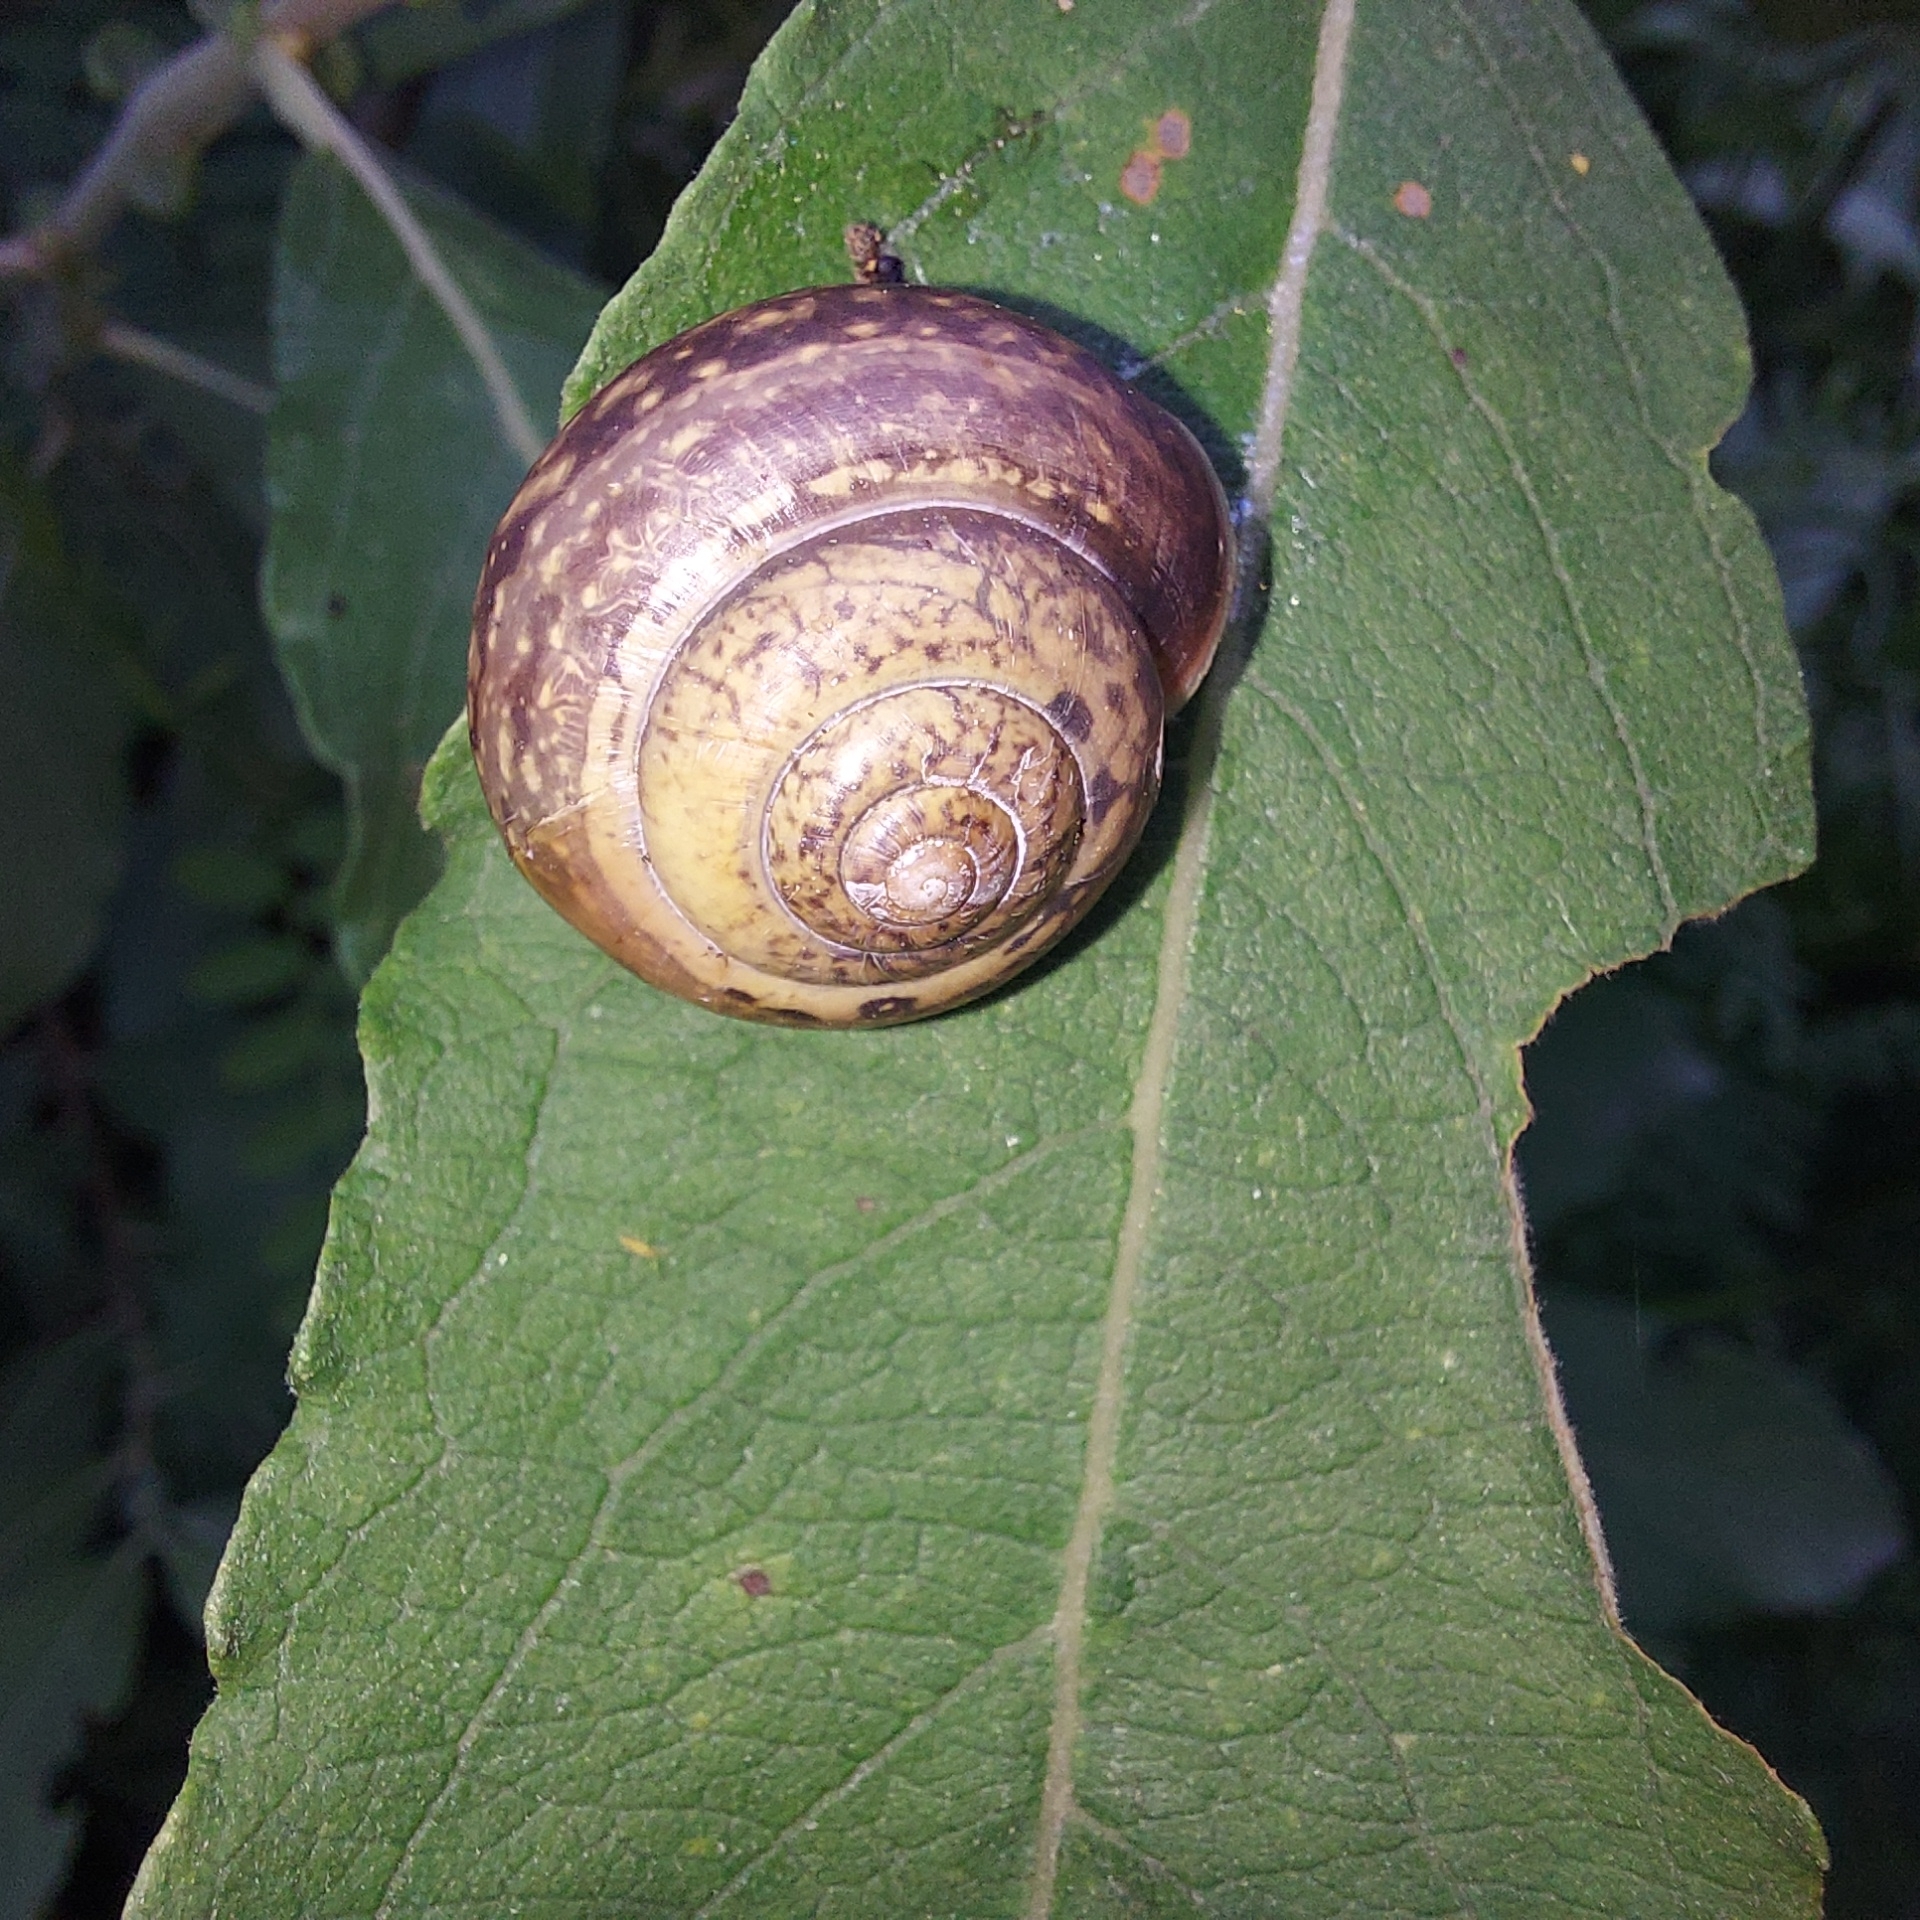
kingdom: Animalia
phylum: Mollusca
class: Gastropoda
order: Stylommatophora
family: Camaenidae
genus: Fruticicola
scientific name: Fruticicola fruticum
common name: Bush snail
